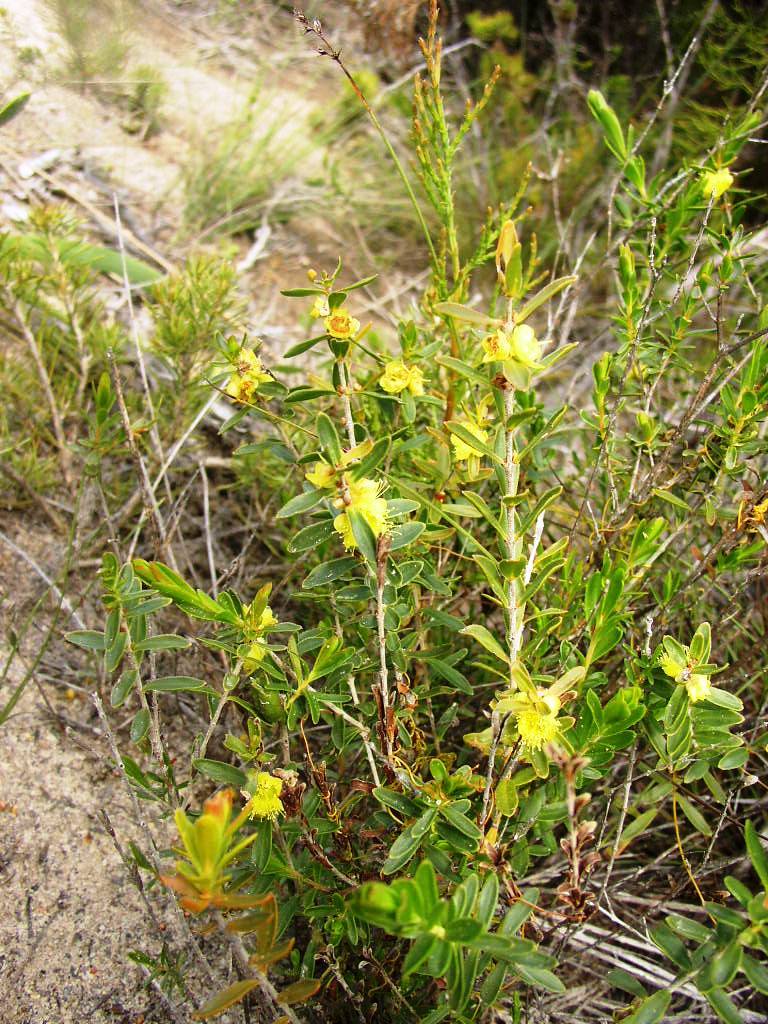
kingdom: Plantae
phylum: Tracheophyta
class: Magnoliopsida
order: Myrtales
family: Myrtaceae
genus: Hypocalymma
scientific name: Hypocalymma xanthopetalum
